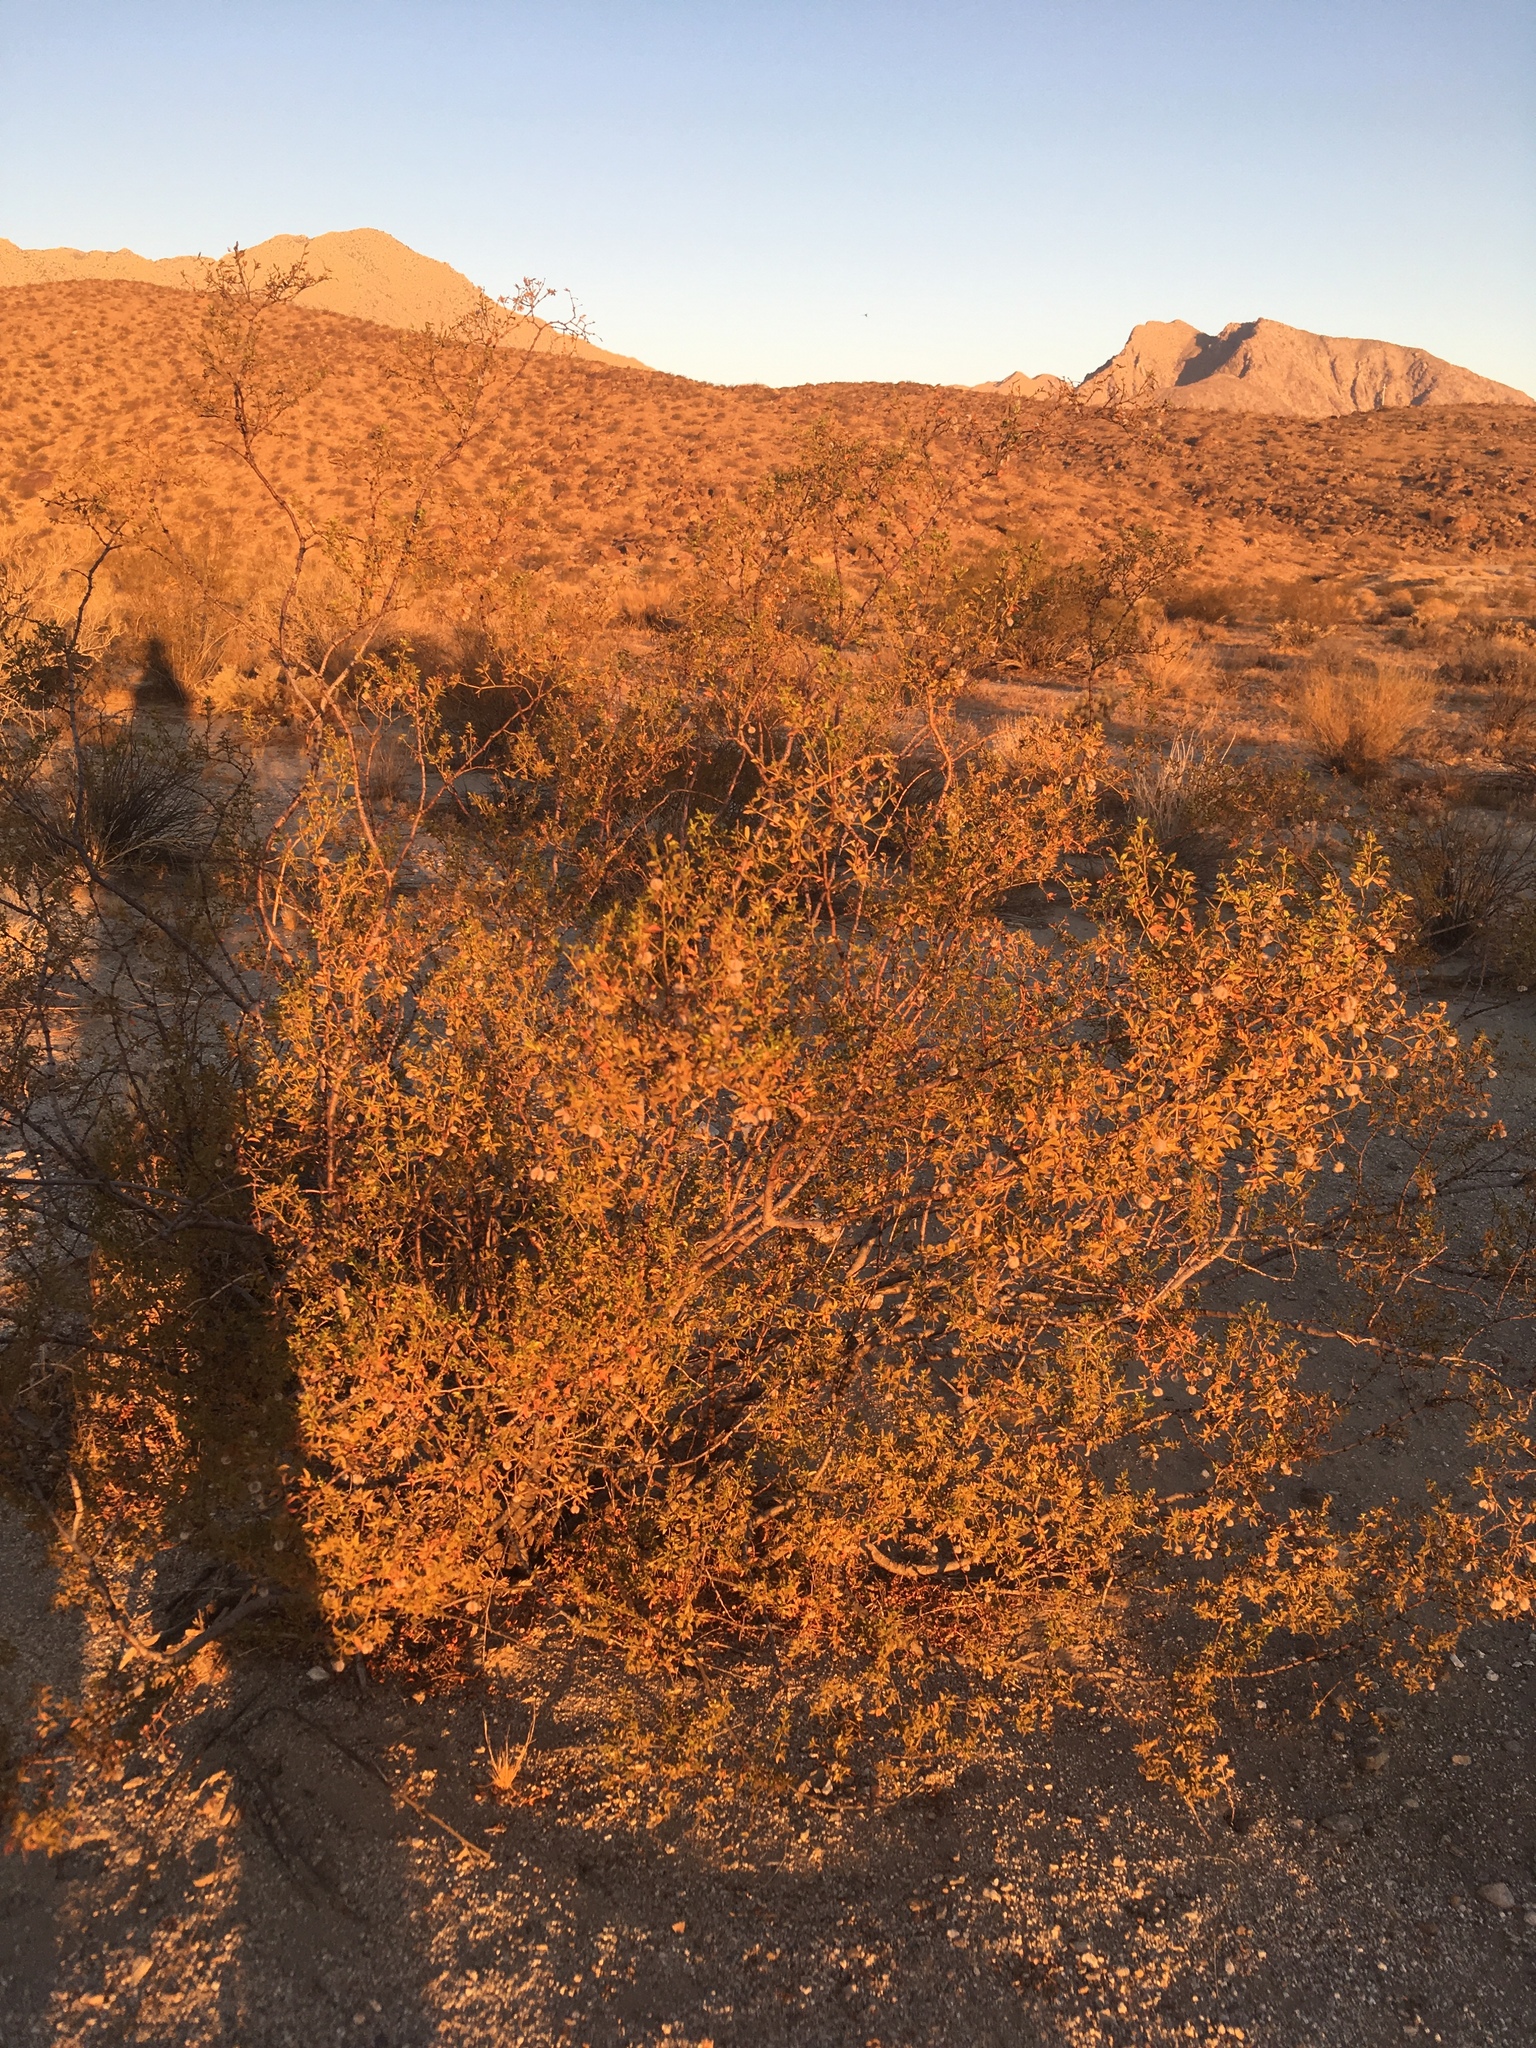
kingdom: Plantae
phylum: Tracheophyta
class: Magnoliopsida
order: Zygophyllales
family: Zygophyllaceae
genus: Larrea
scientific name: Larrea tridentata
